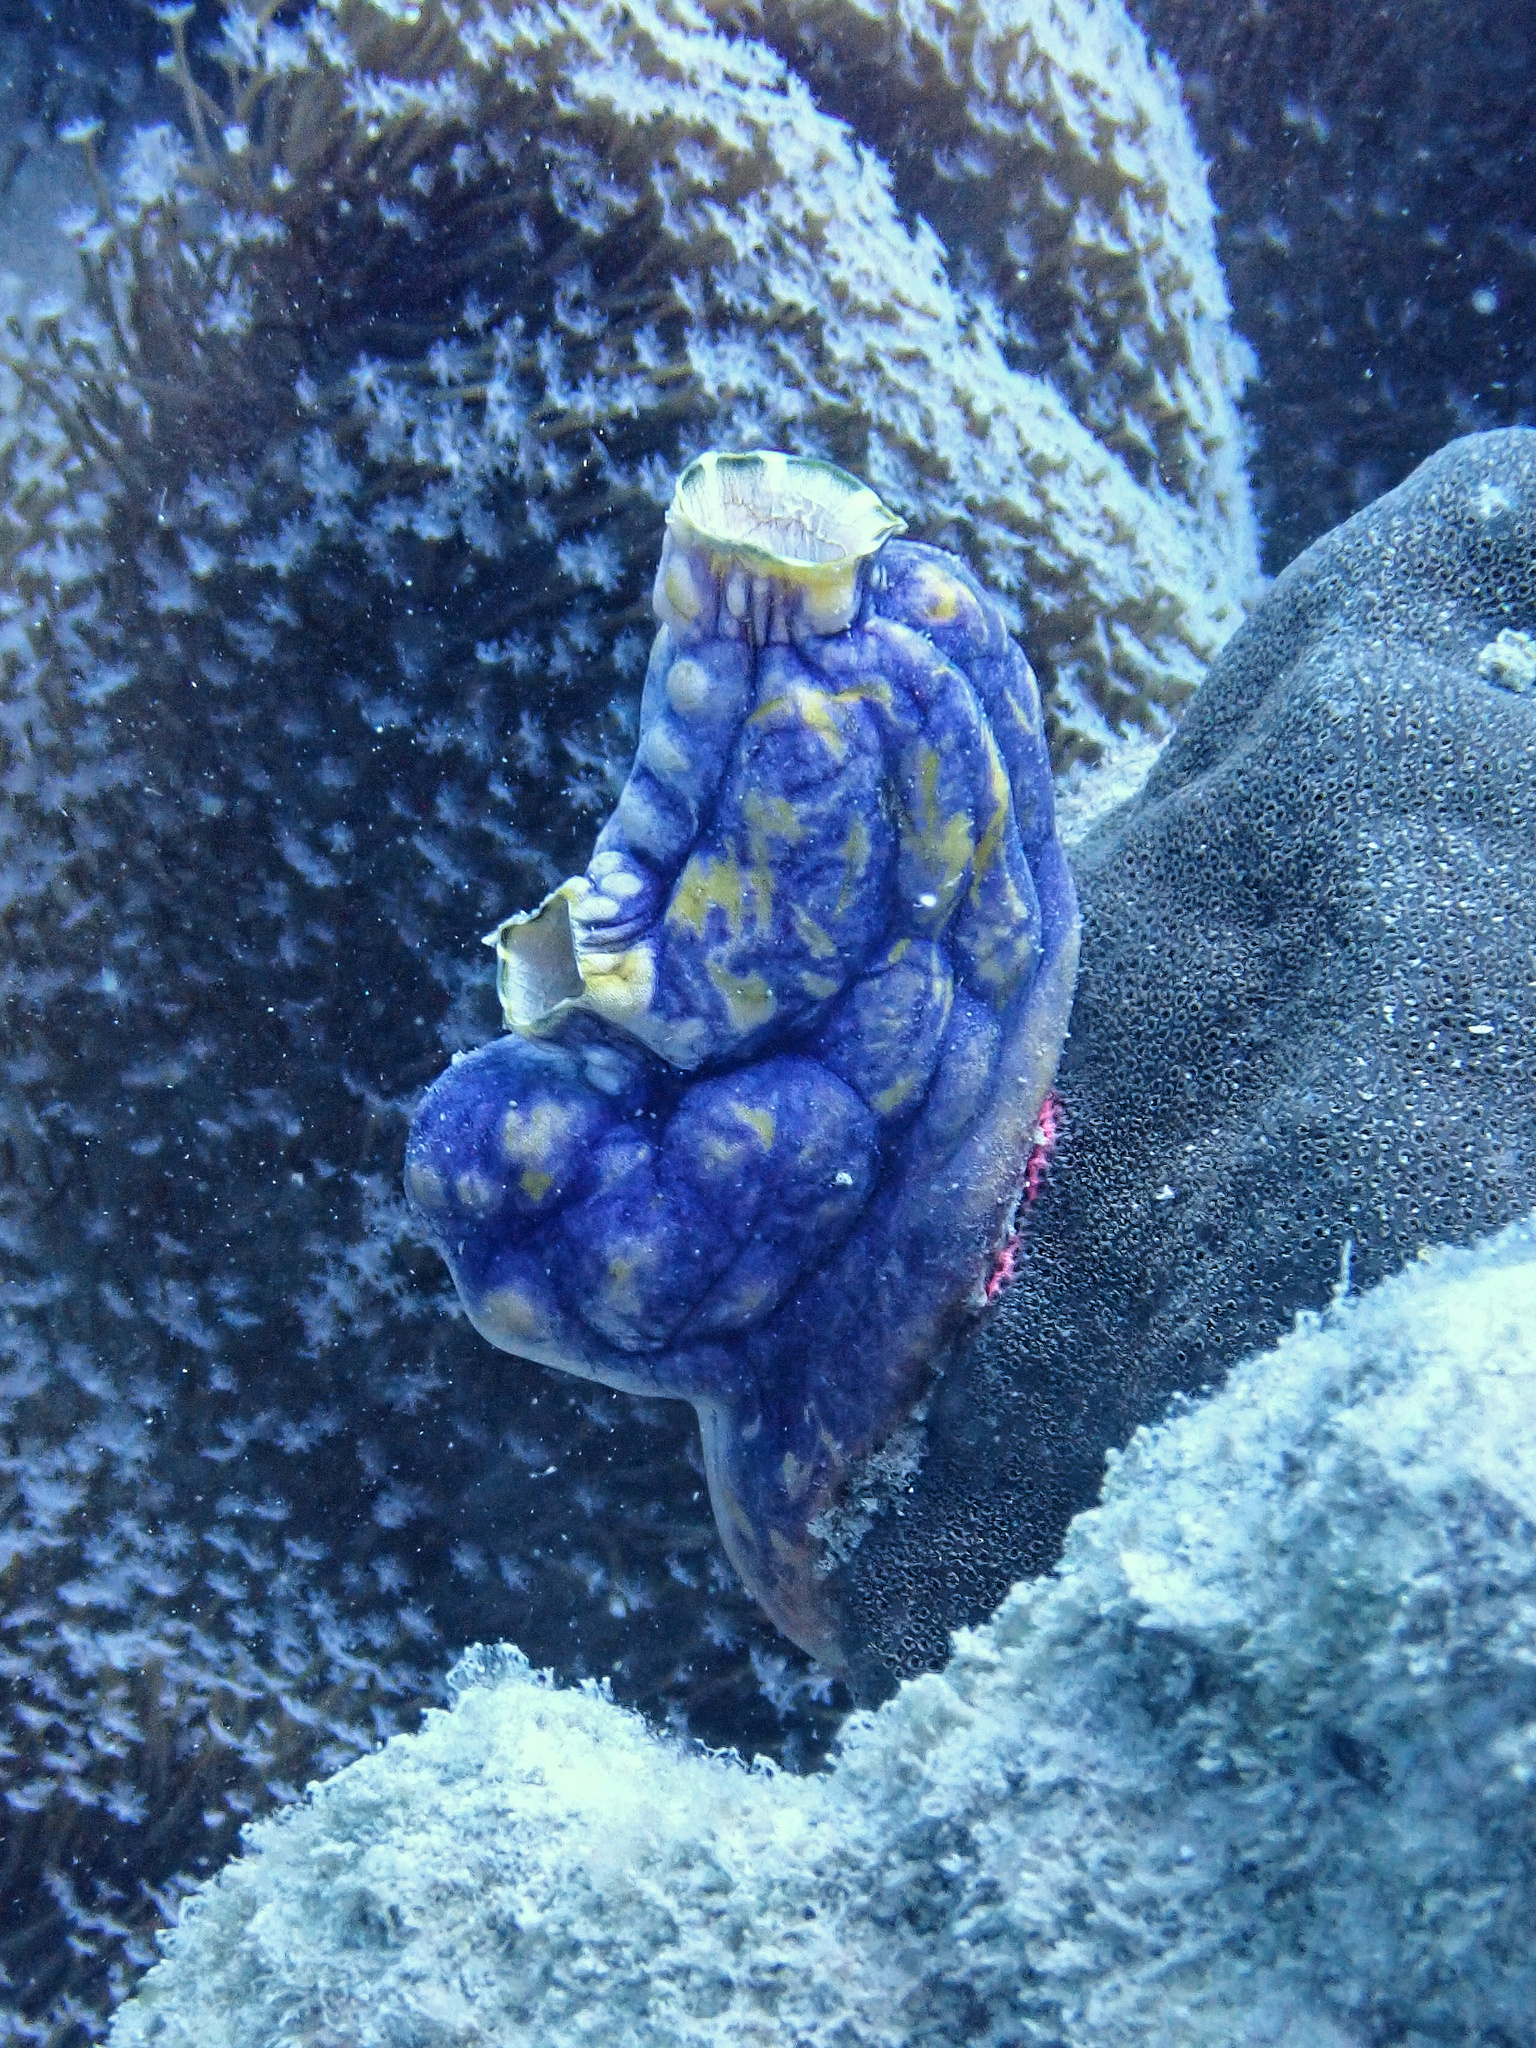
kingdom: Animalia
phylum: Chordata
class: Ascidiacea
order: Stolidobranchia
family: Styelidae
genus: Polycarpa
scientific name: Polycarpa aurata
